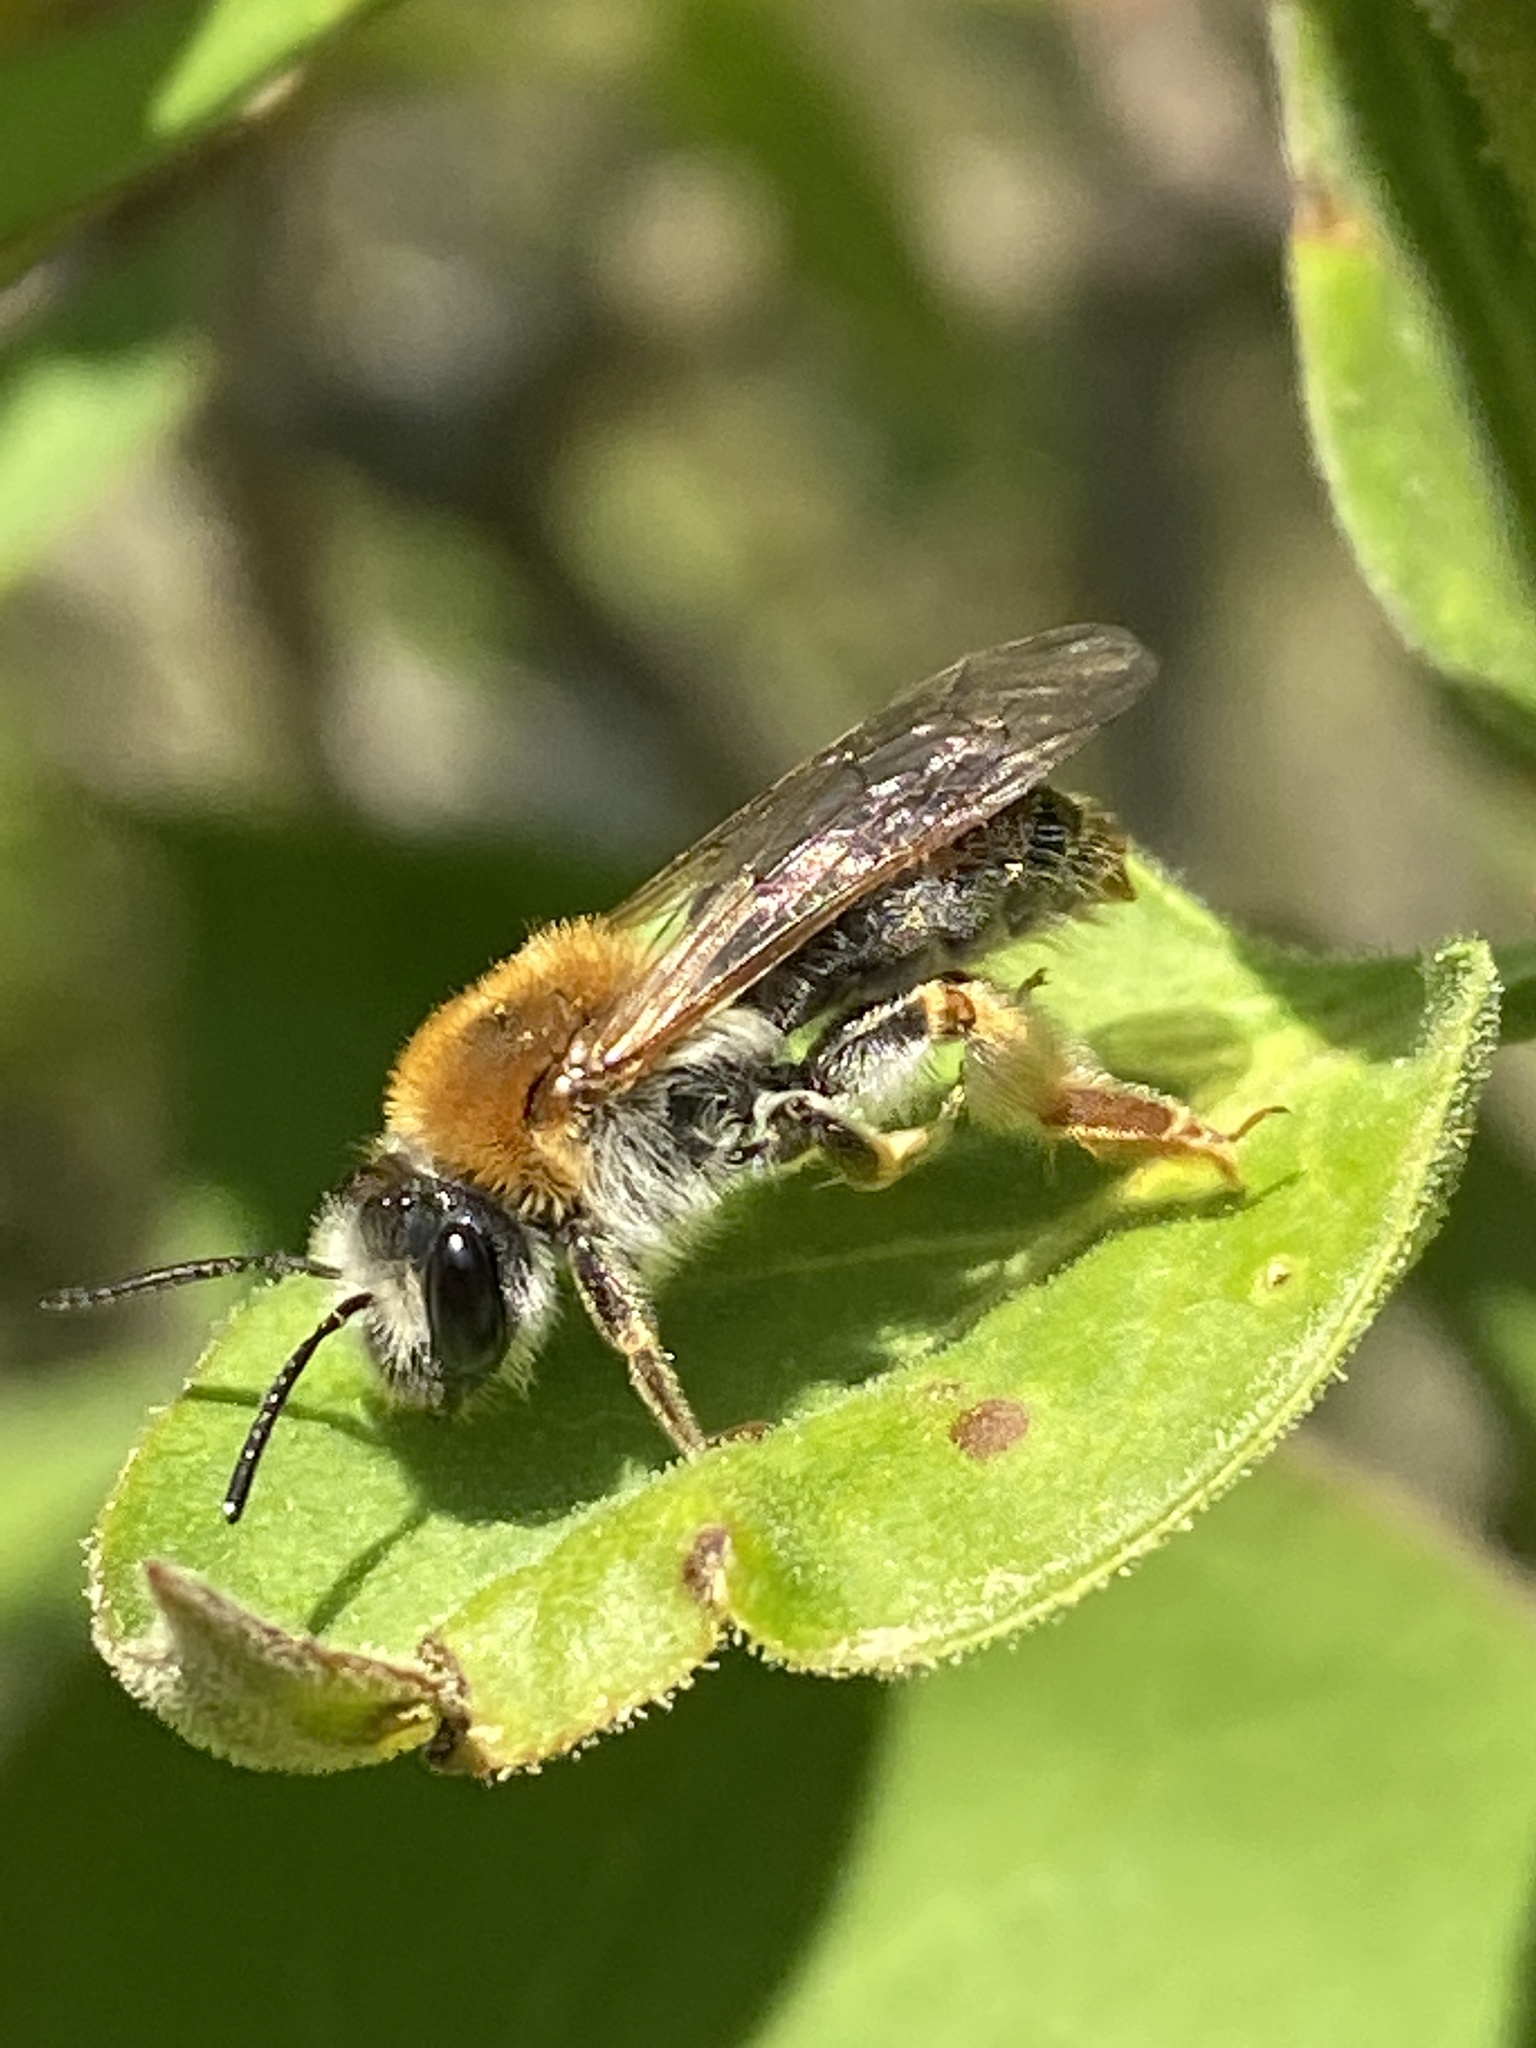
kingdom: Animalia
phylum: Arthropoda
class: Insecta
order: Hymenoptera
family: Andrenidae
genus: Andrena
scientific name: Andrena haemorrhoa
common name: Early mining bee
